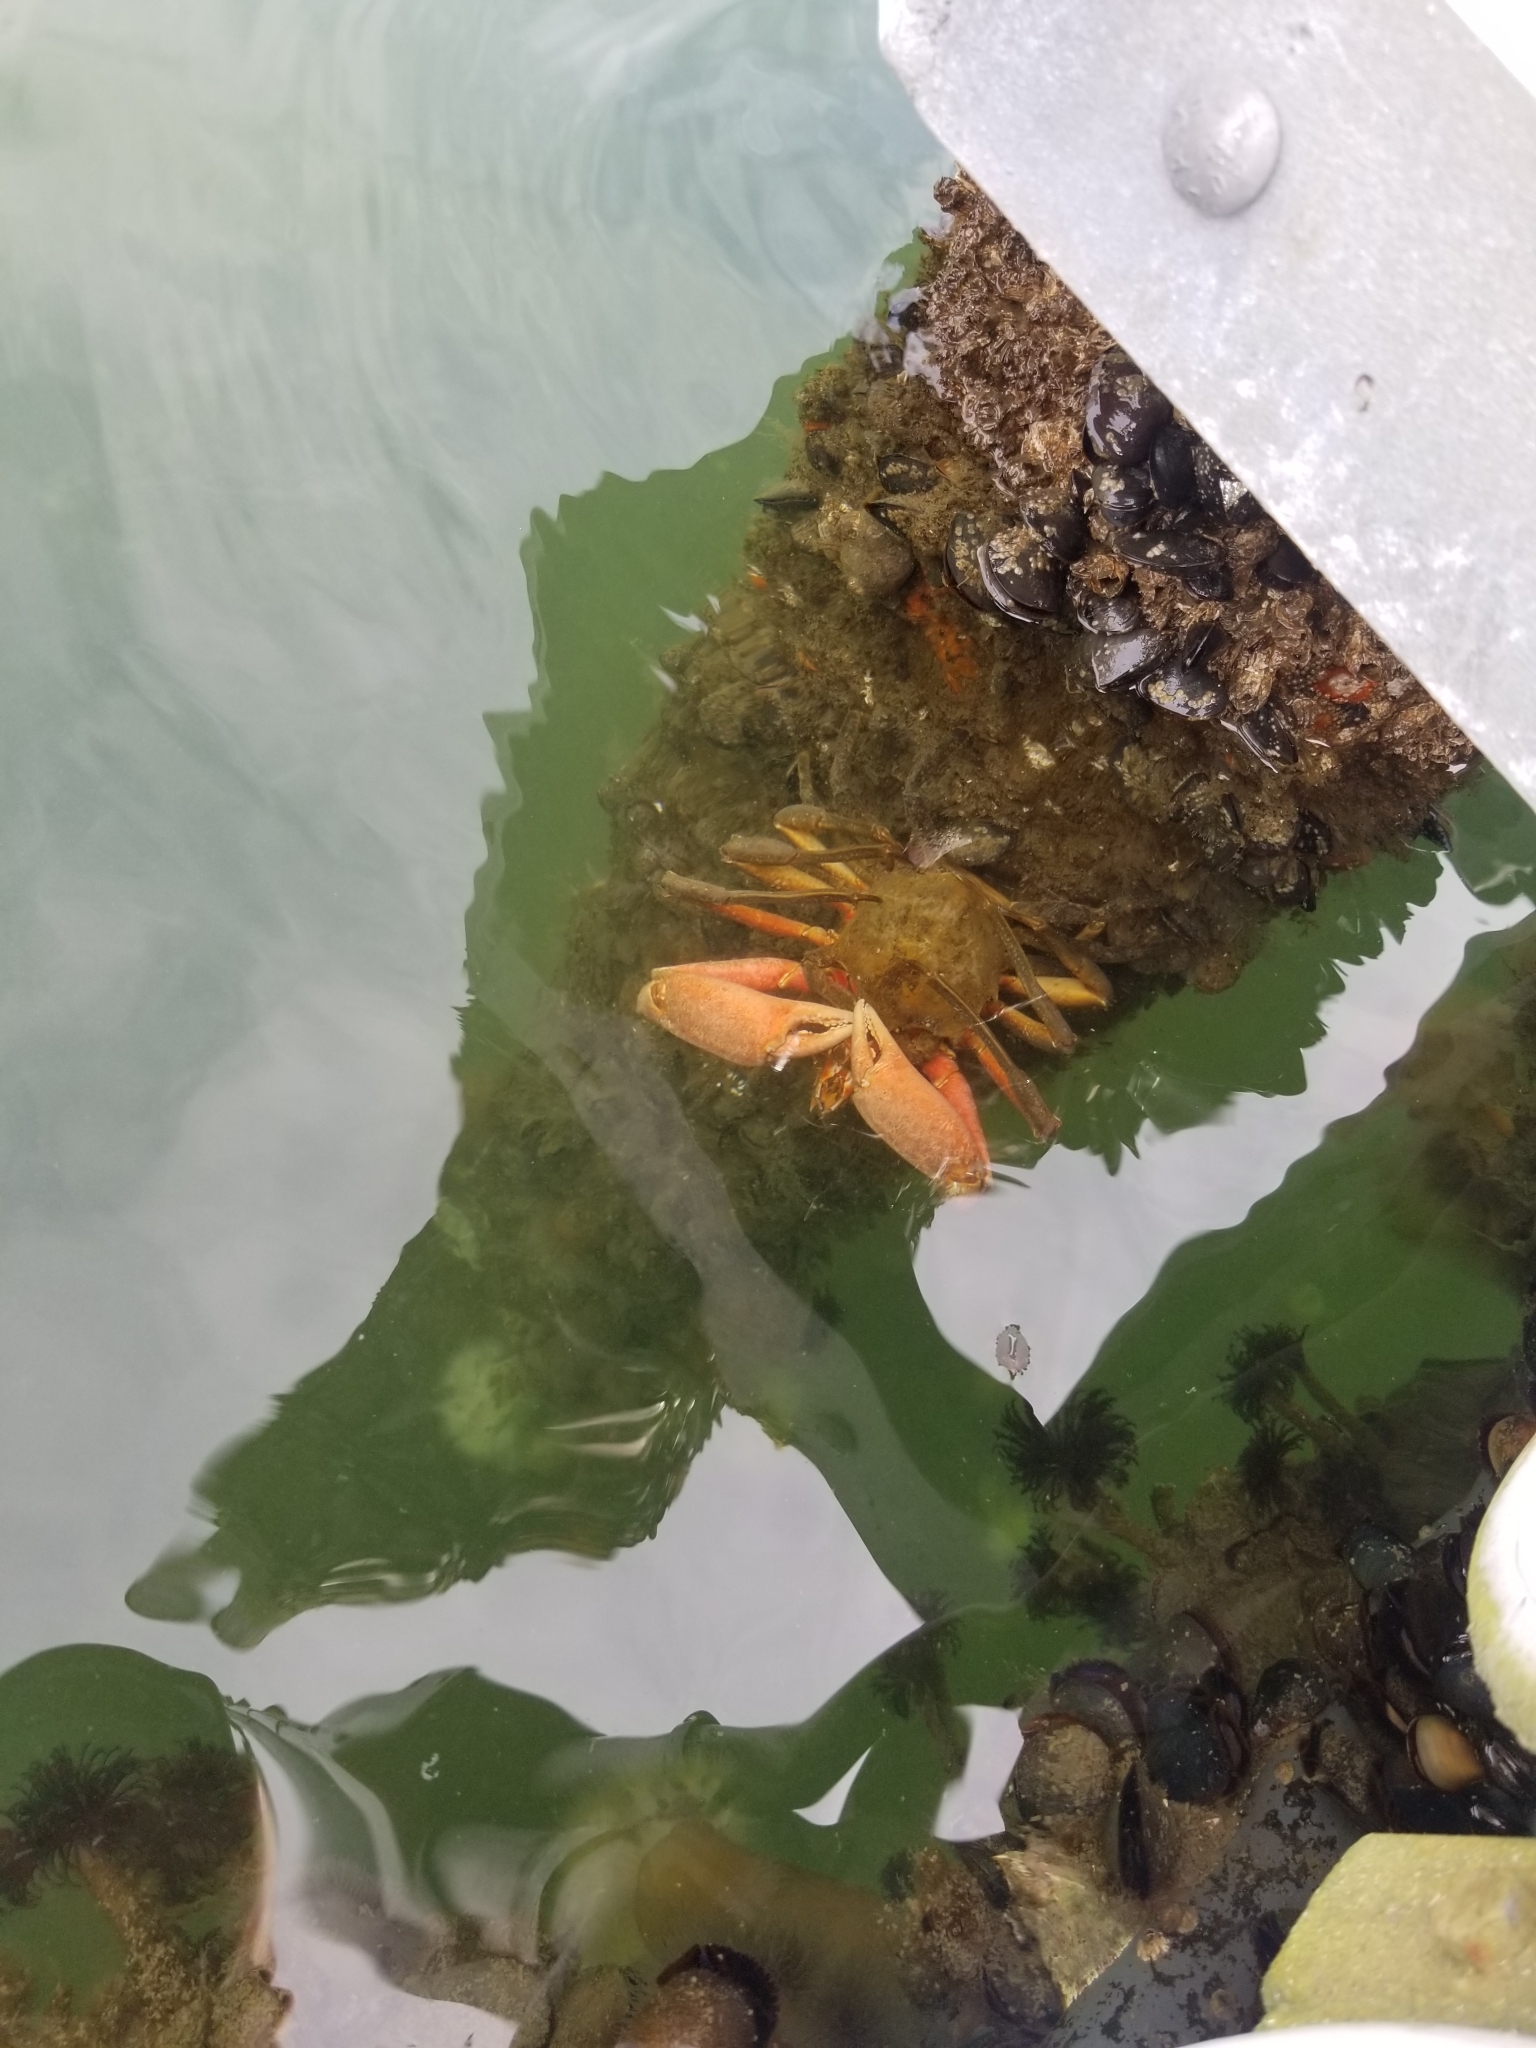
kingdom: Animalia
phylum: Arthropoda
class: Malacostraca
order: Decapoda
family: Epialtidae
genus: Pugettia
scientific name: Pugettia producta
